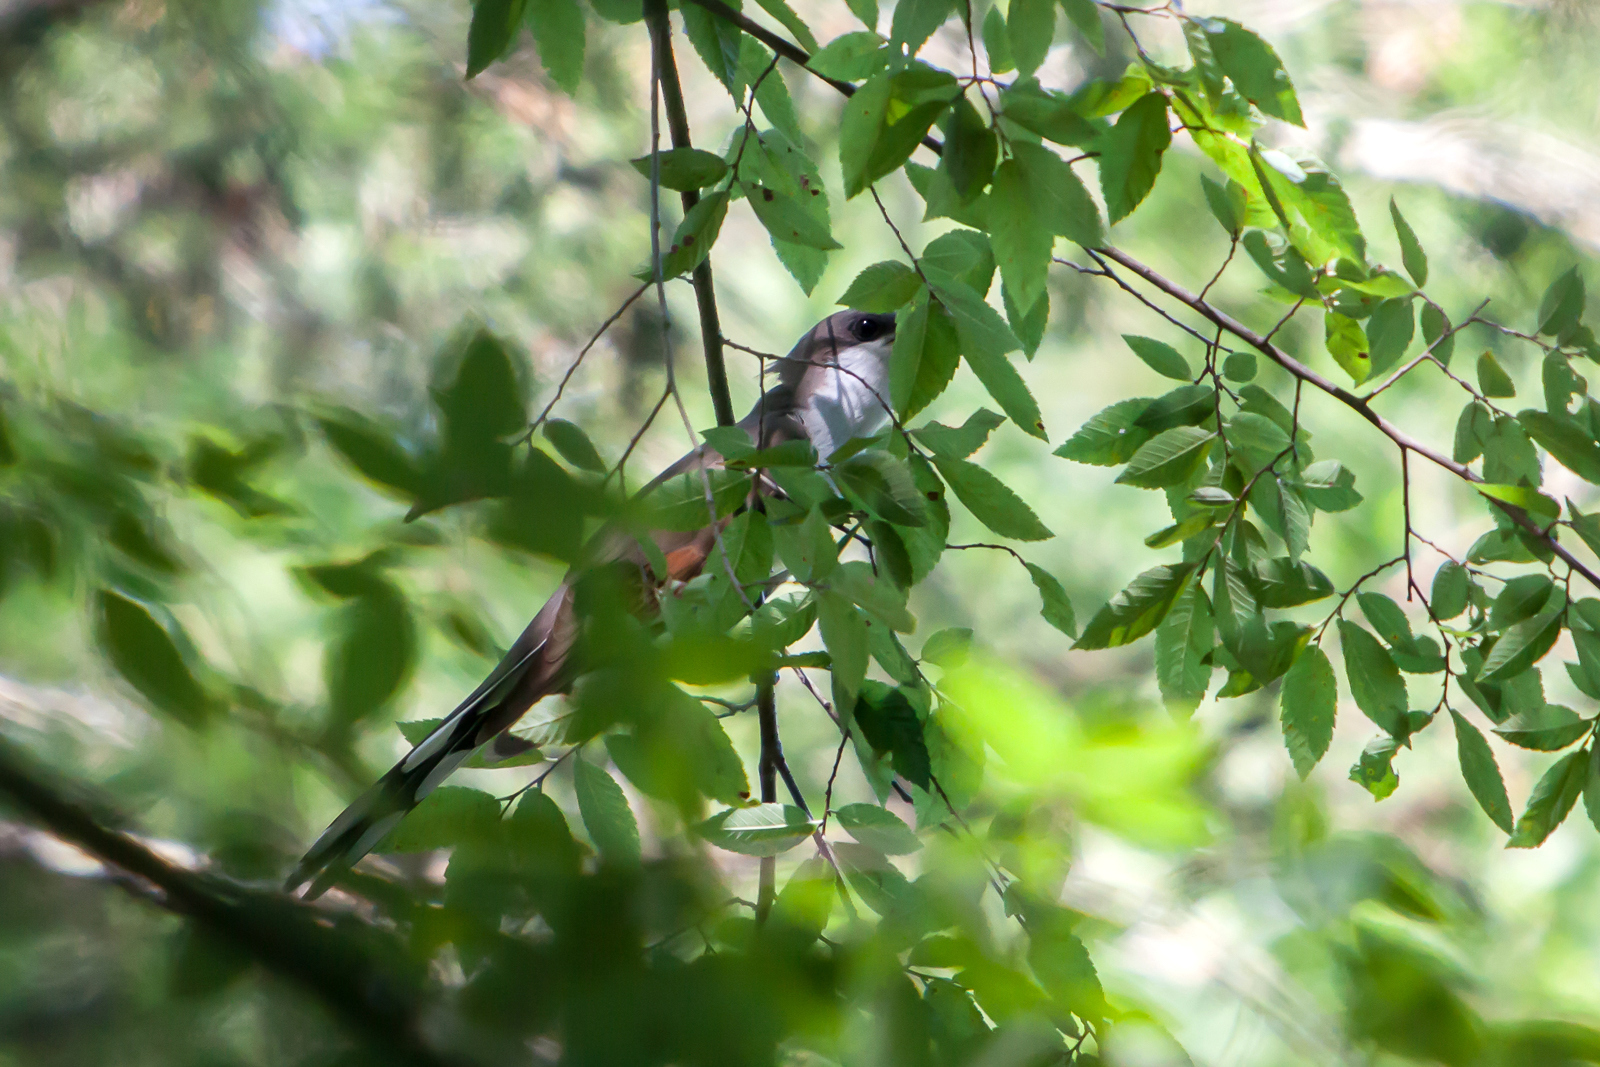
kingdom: Animalia
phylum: Chordata
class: Aves
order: Cuculiformes
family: Cuculidae
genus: Coccyzus
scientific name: Coccyzus americanus
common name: Yellow-billed cuckoo
